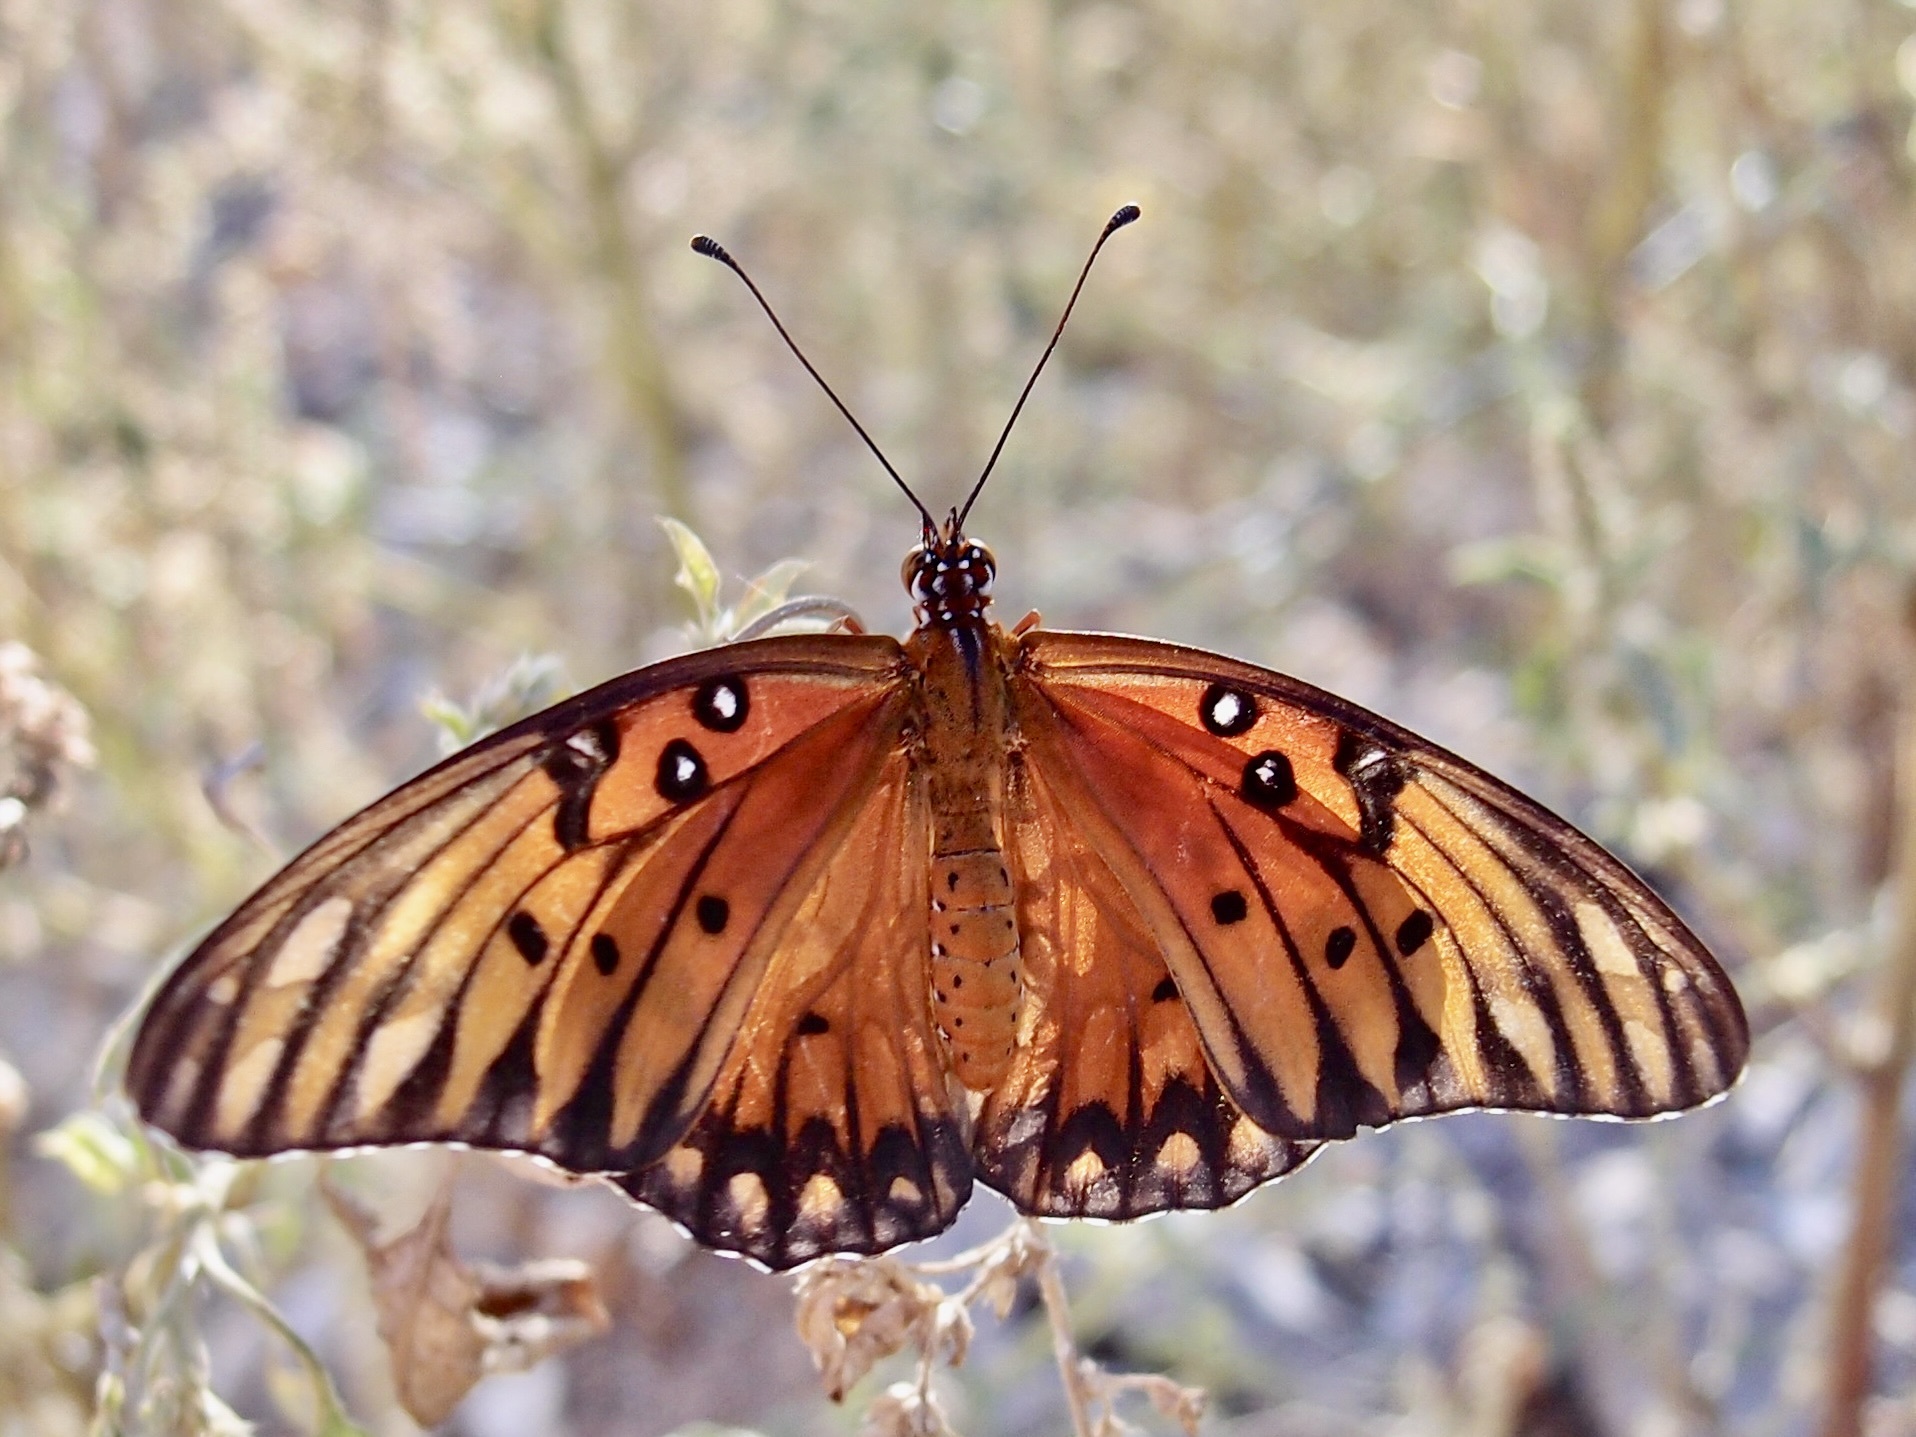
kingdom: Animalia
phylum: Arthropoda
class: Insecta
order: Lepidoptera
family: Nymphalidae
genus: Dione
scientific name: Dione vanillae
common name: Gulf fritillary
